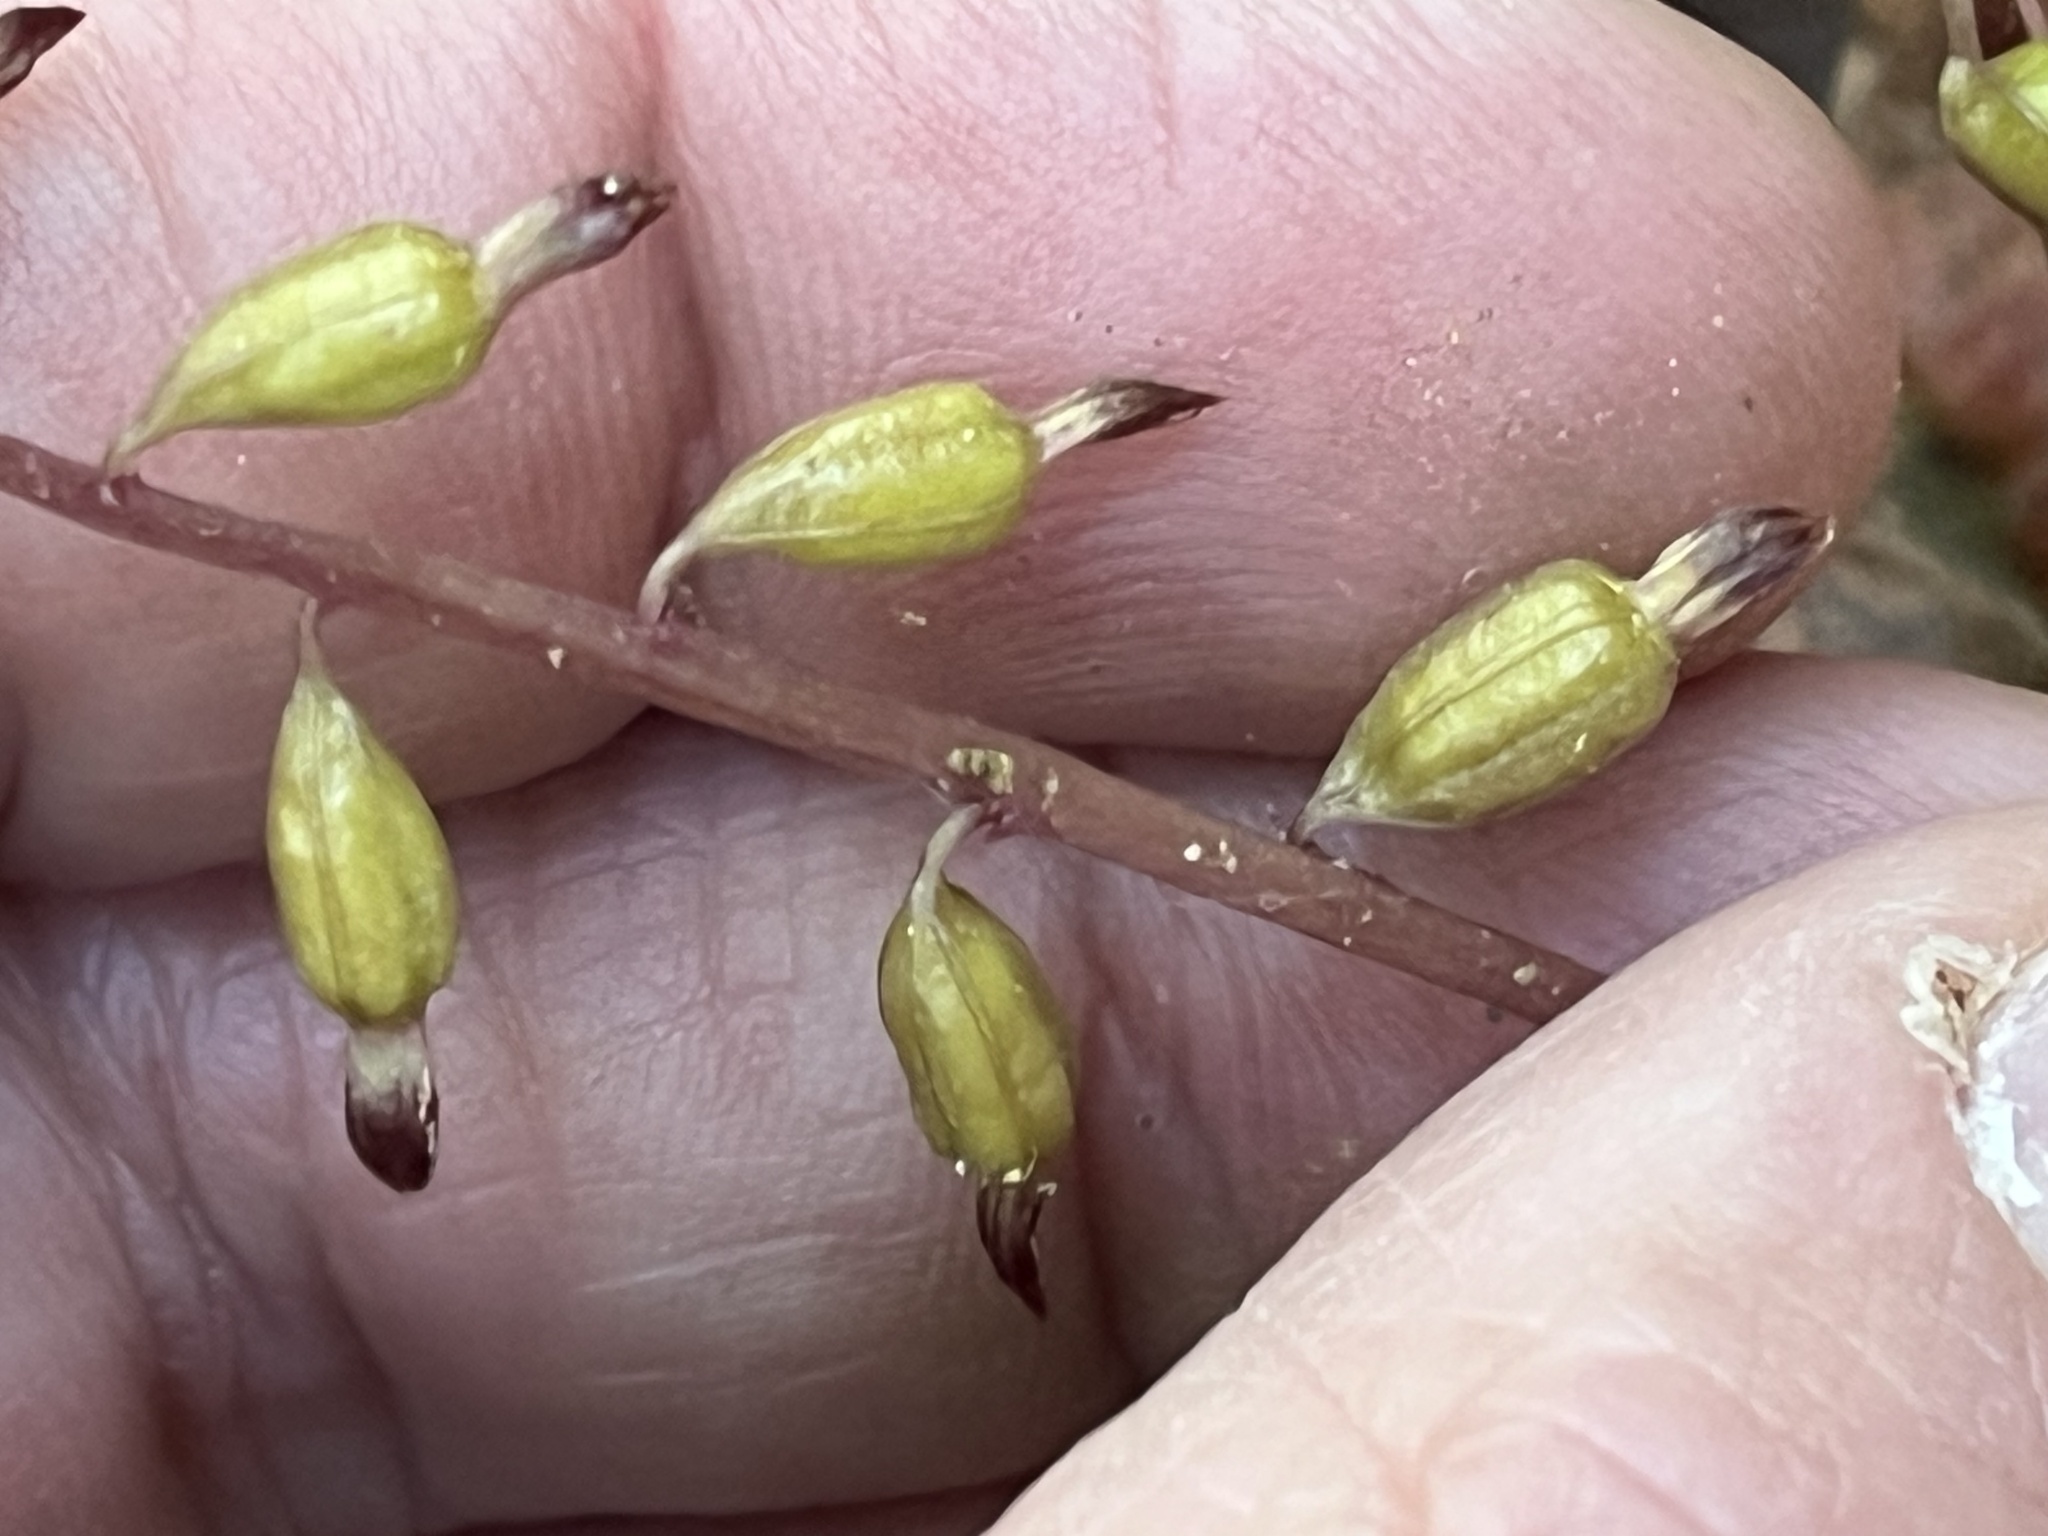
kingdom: Plantae
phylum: Tracheophyta
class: Liliopsida
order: Asparagales
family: Orchidaceae
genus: Corallorhiza
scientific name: Corallorhiza odontorhiza
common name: Autumn coralroot
